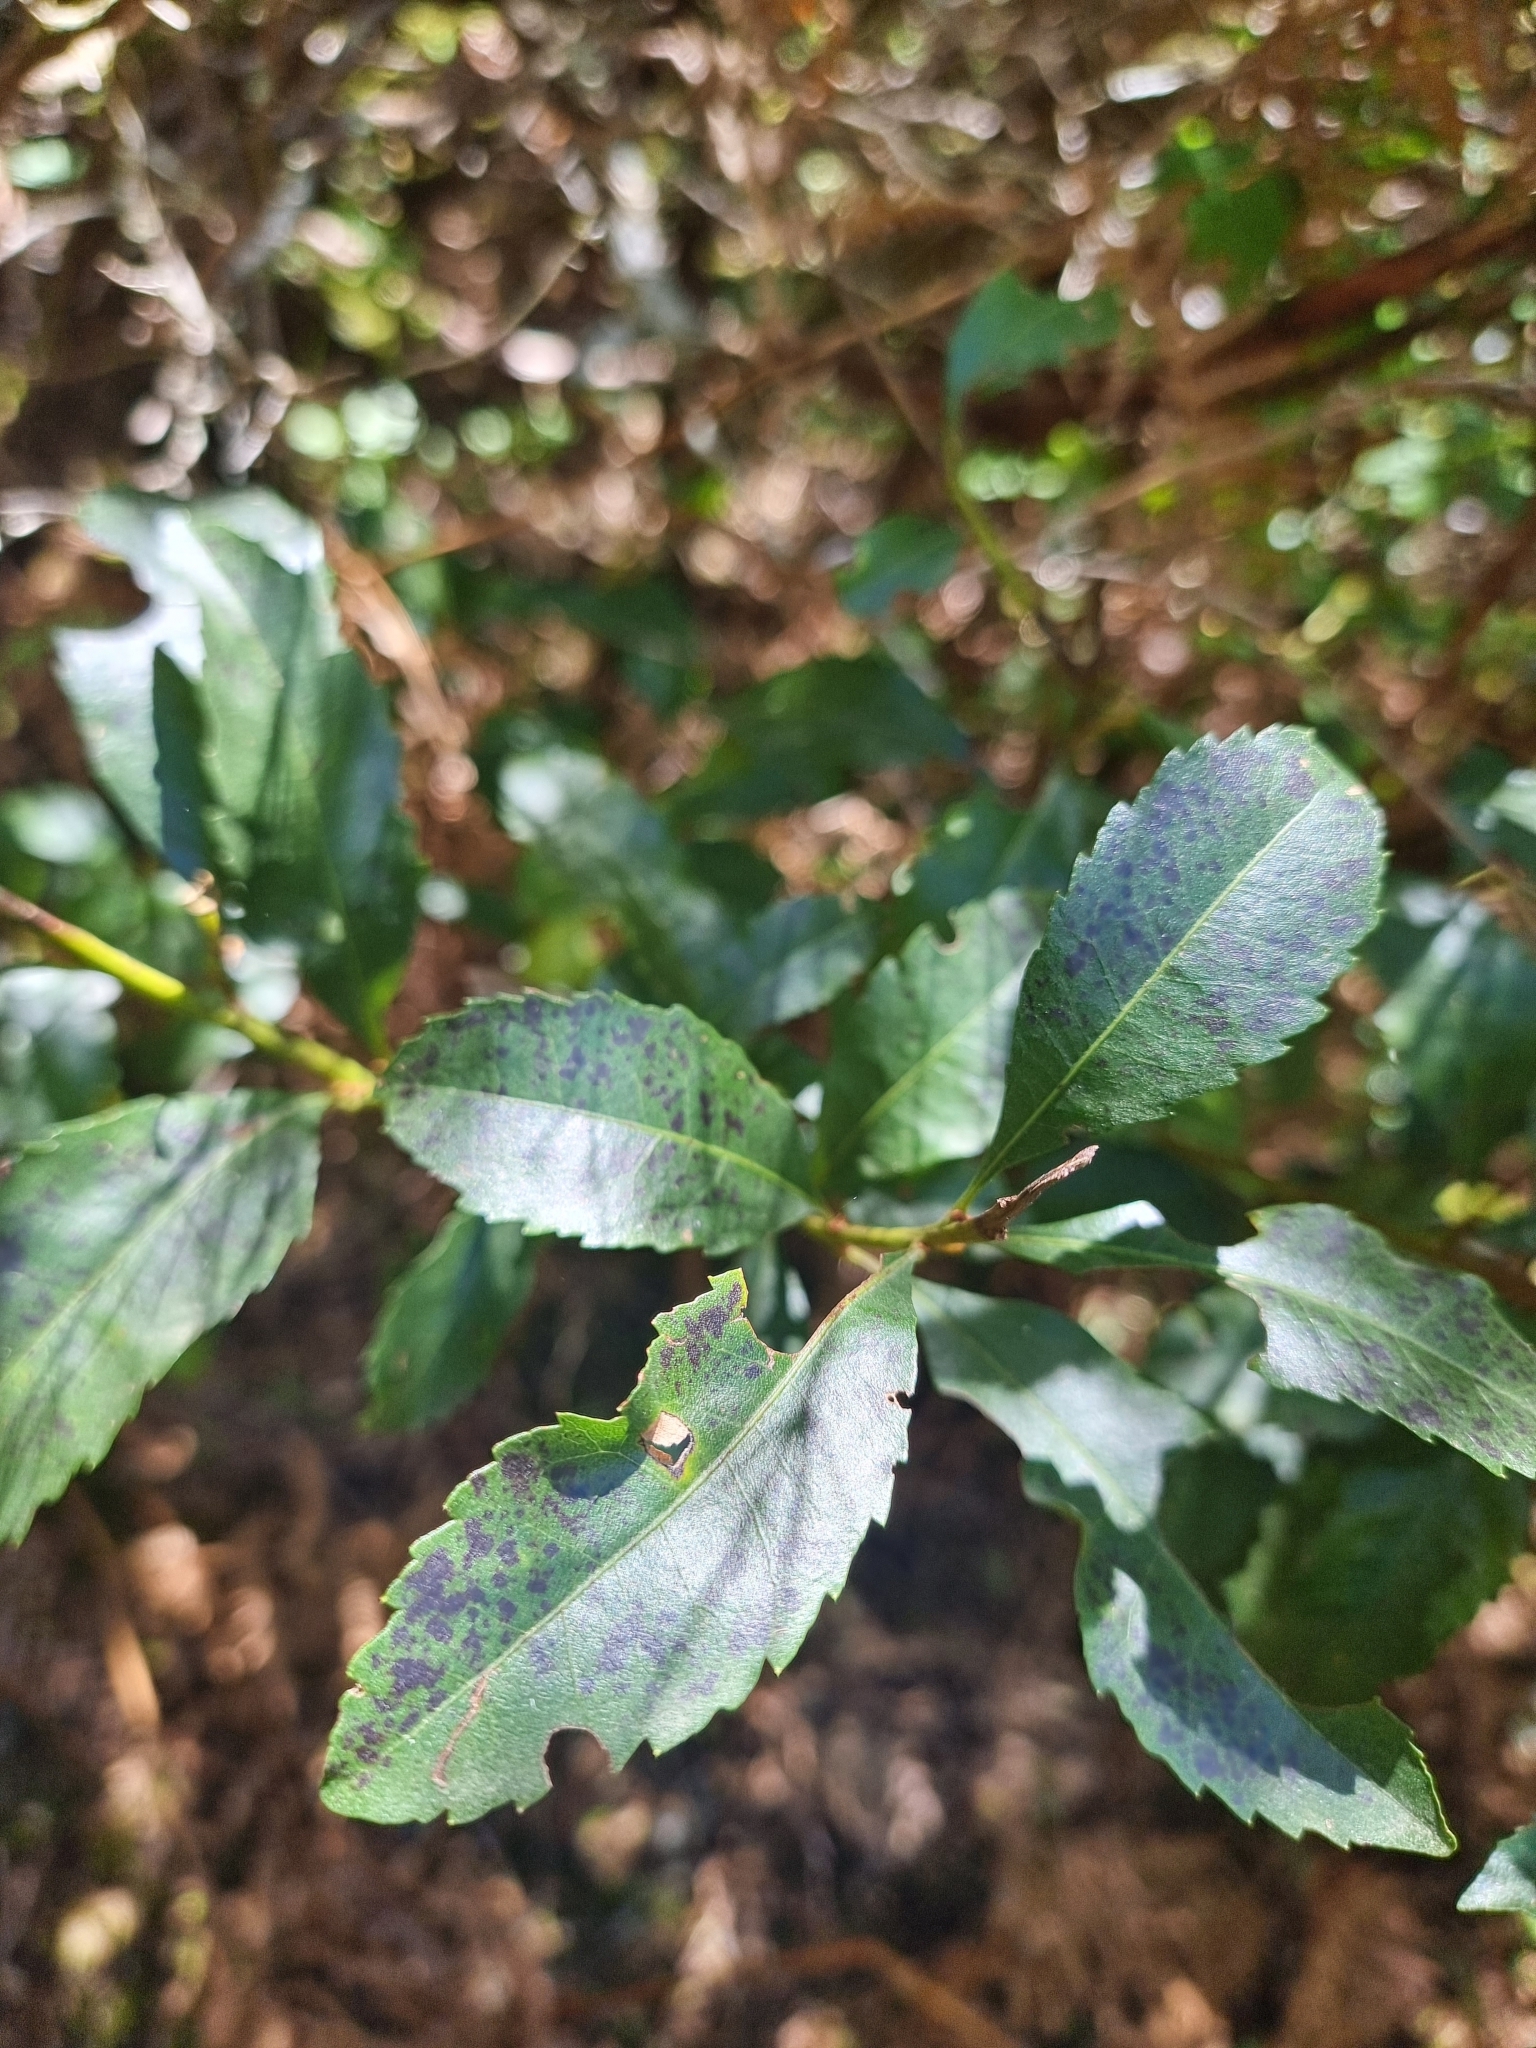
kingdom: Plantae
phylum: Tracheophyta
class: Magnoliopsida
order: Fagales
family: Myricaceae
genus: Morella
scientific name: Morella faya
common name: Firetree
